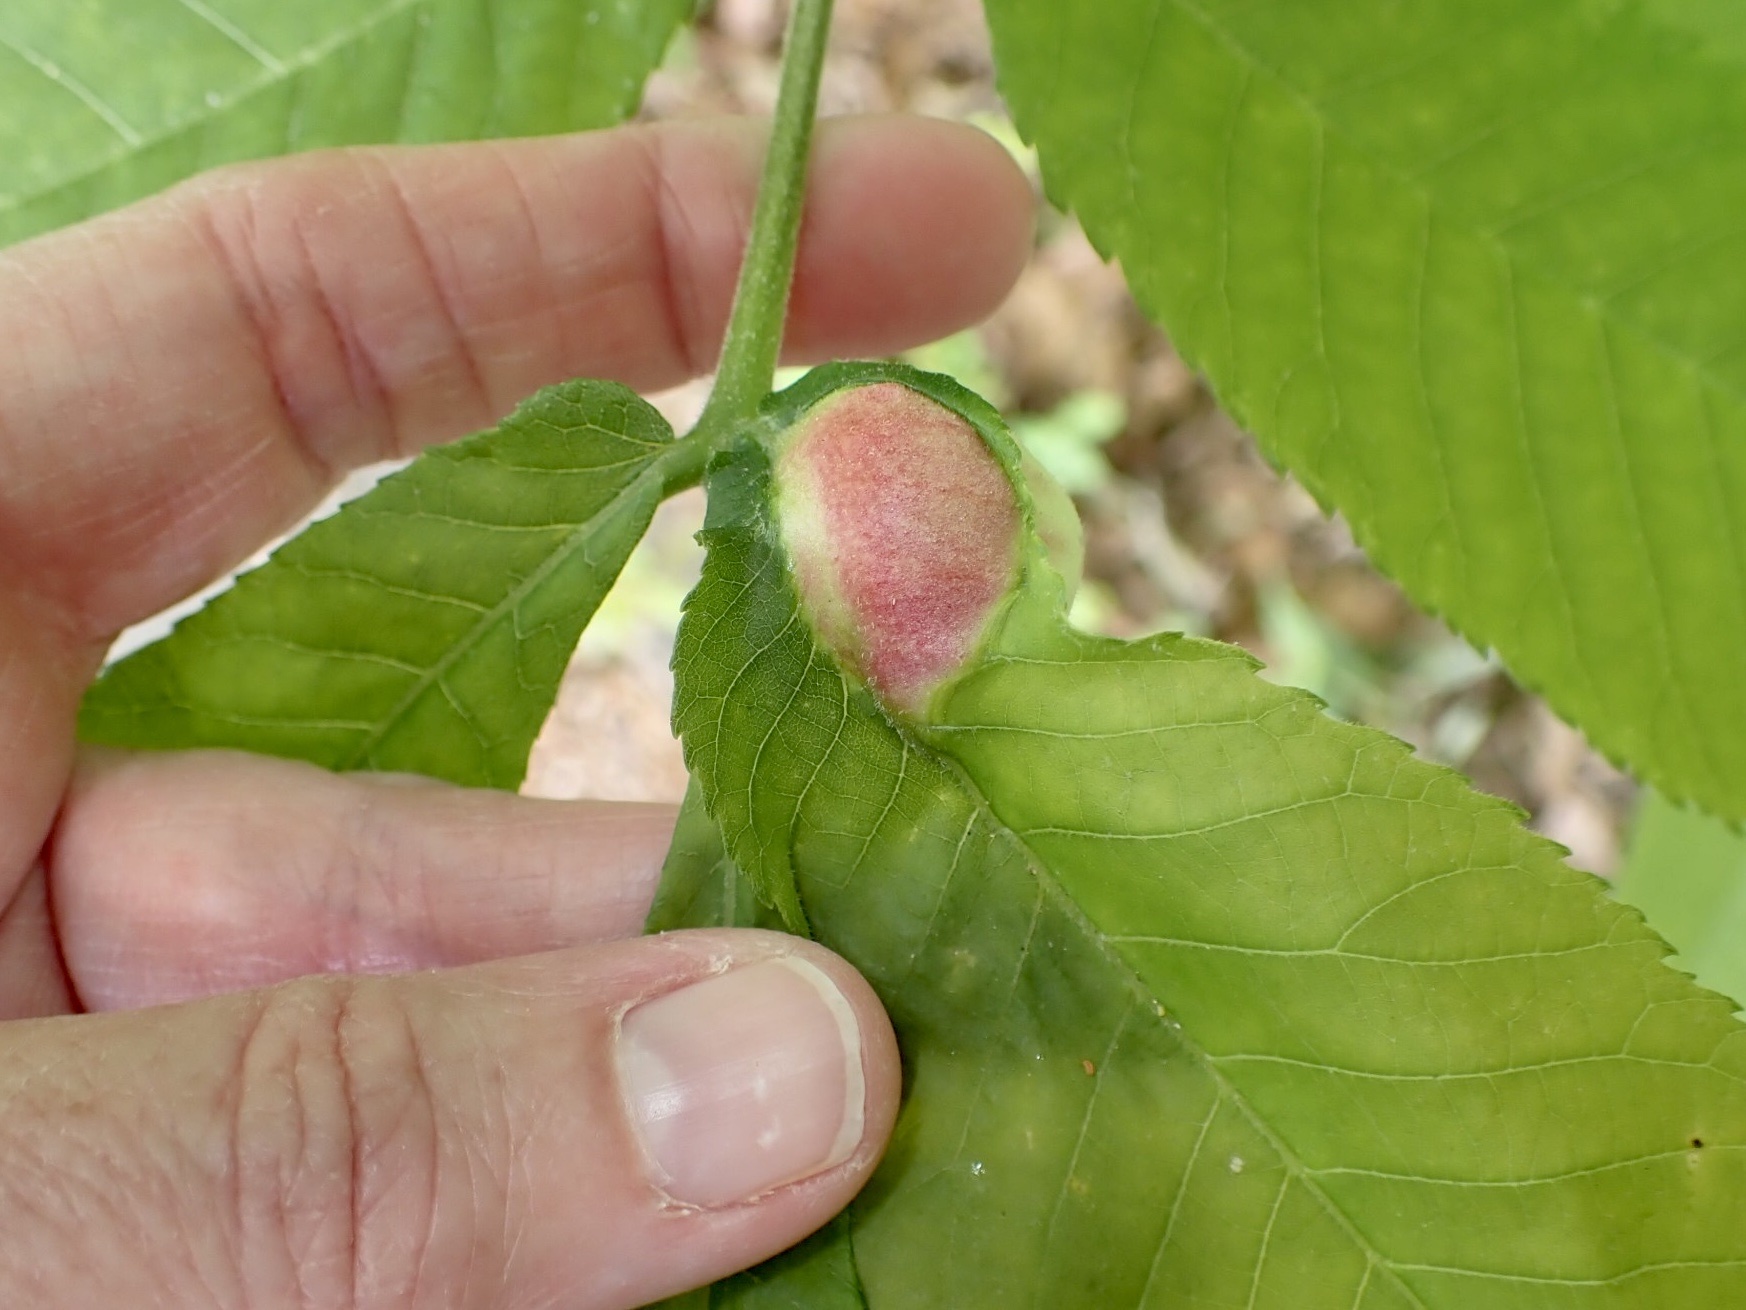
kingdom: Animalia
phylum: Arthropoda
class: Insecta
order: Hemiptera
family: Phylloxeridae
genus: Phylloxera
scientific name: Phylloxera
